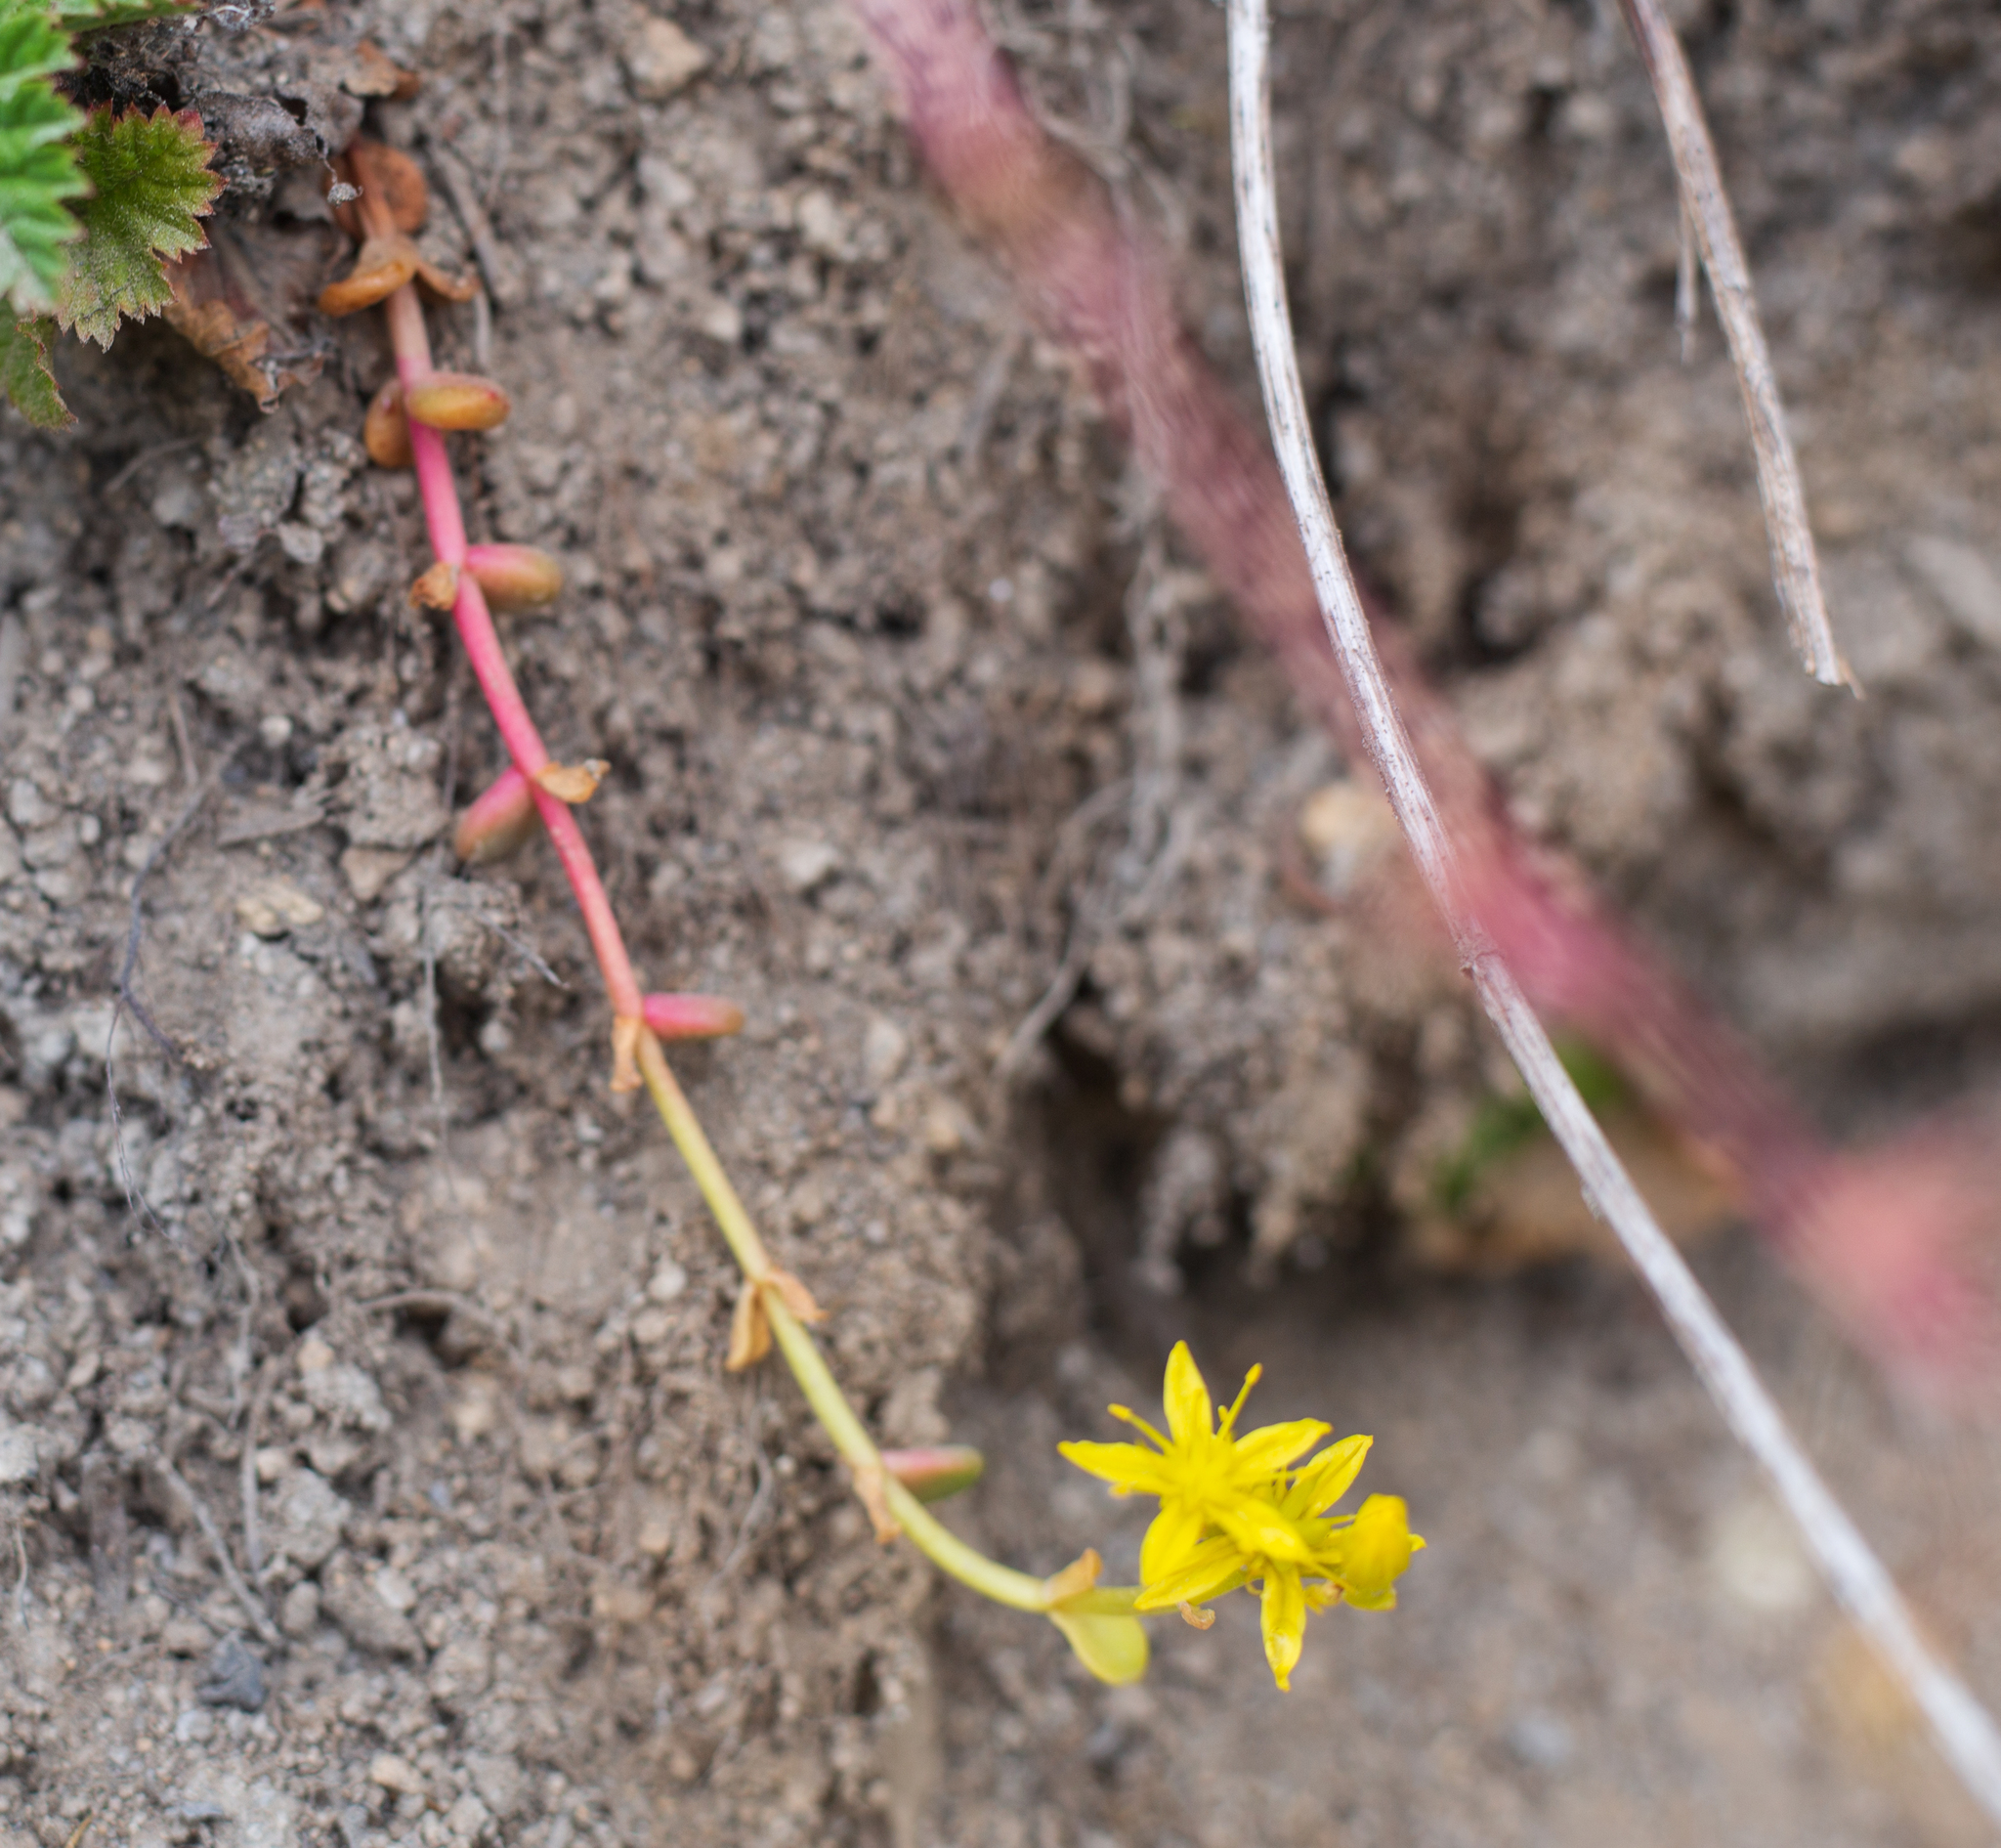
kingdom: Plantae
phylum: Tracheophyta
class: Magnoliopsida
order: Saxifragales
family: Crassulaceae
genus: Sedum
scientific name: Sedum divergens
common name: Cascade stonecrop
